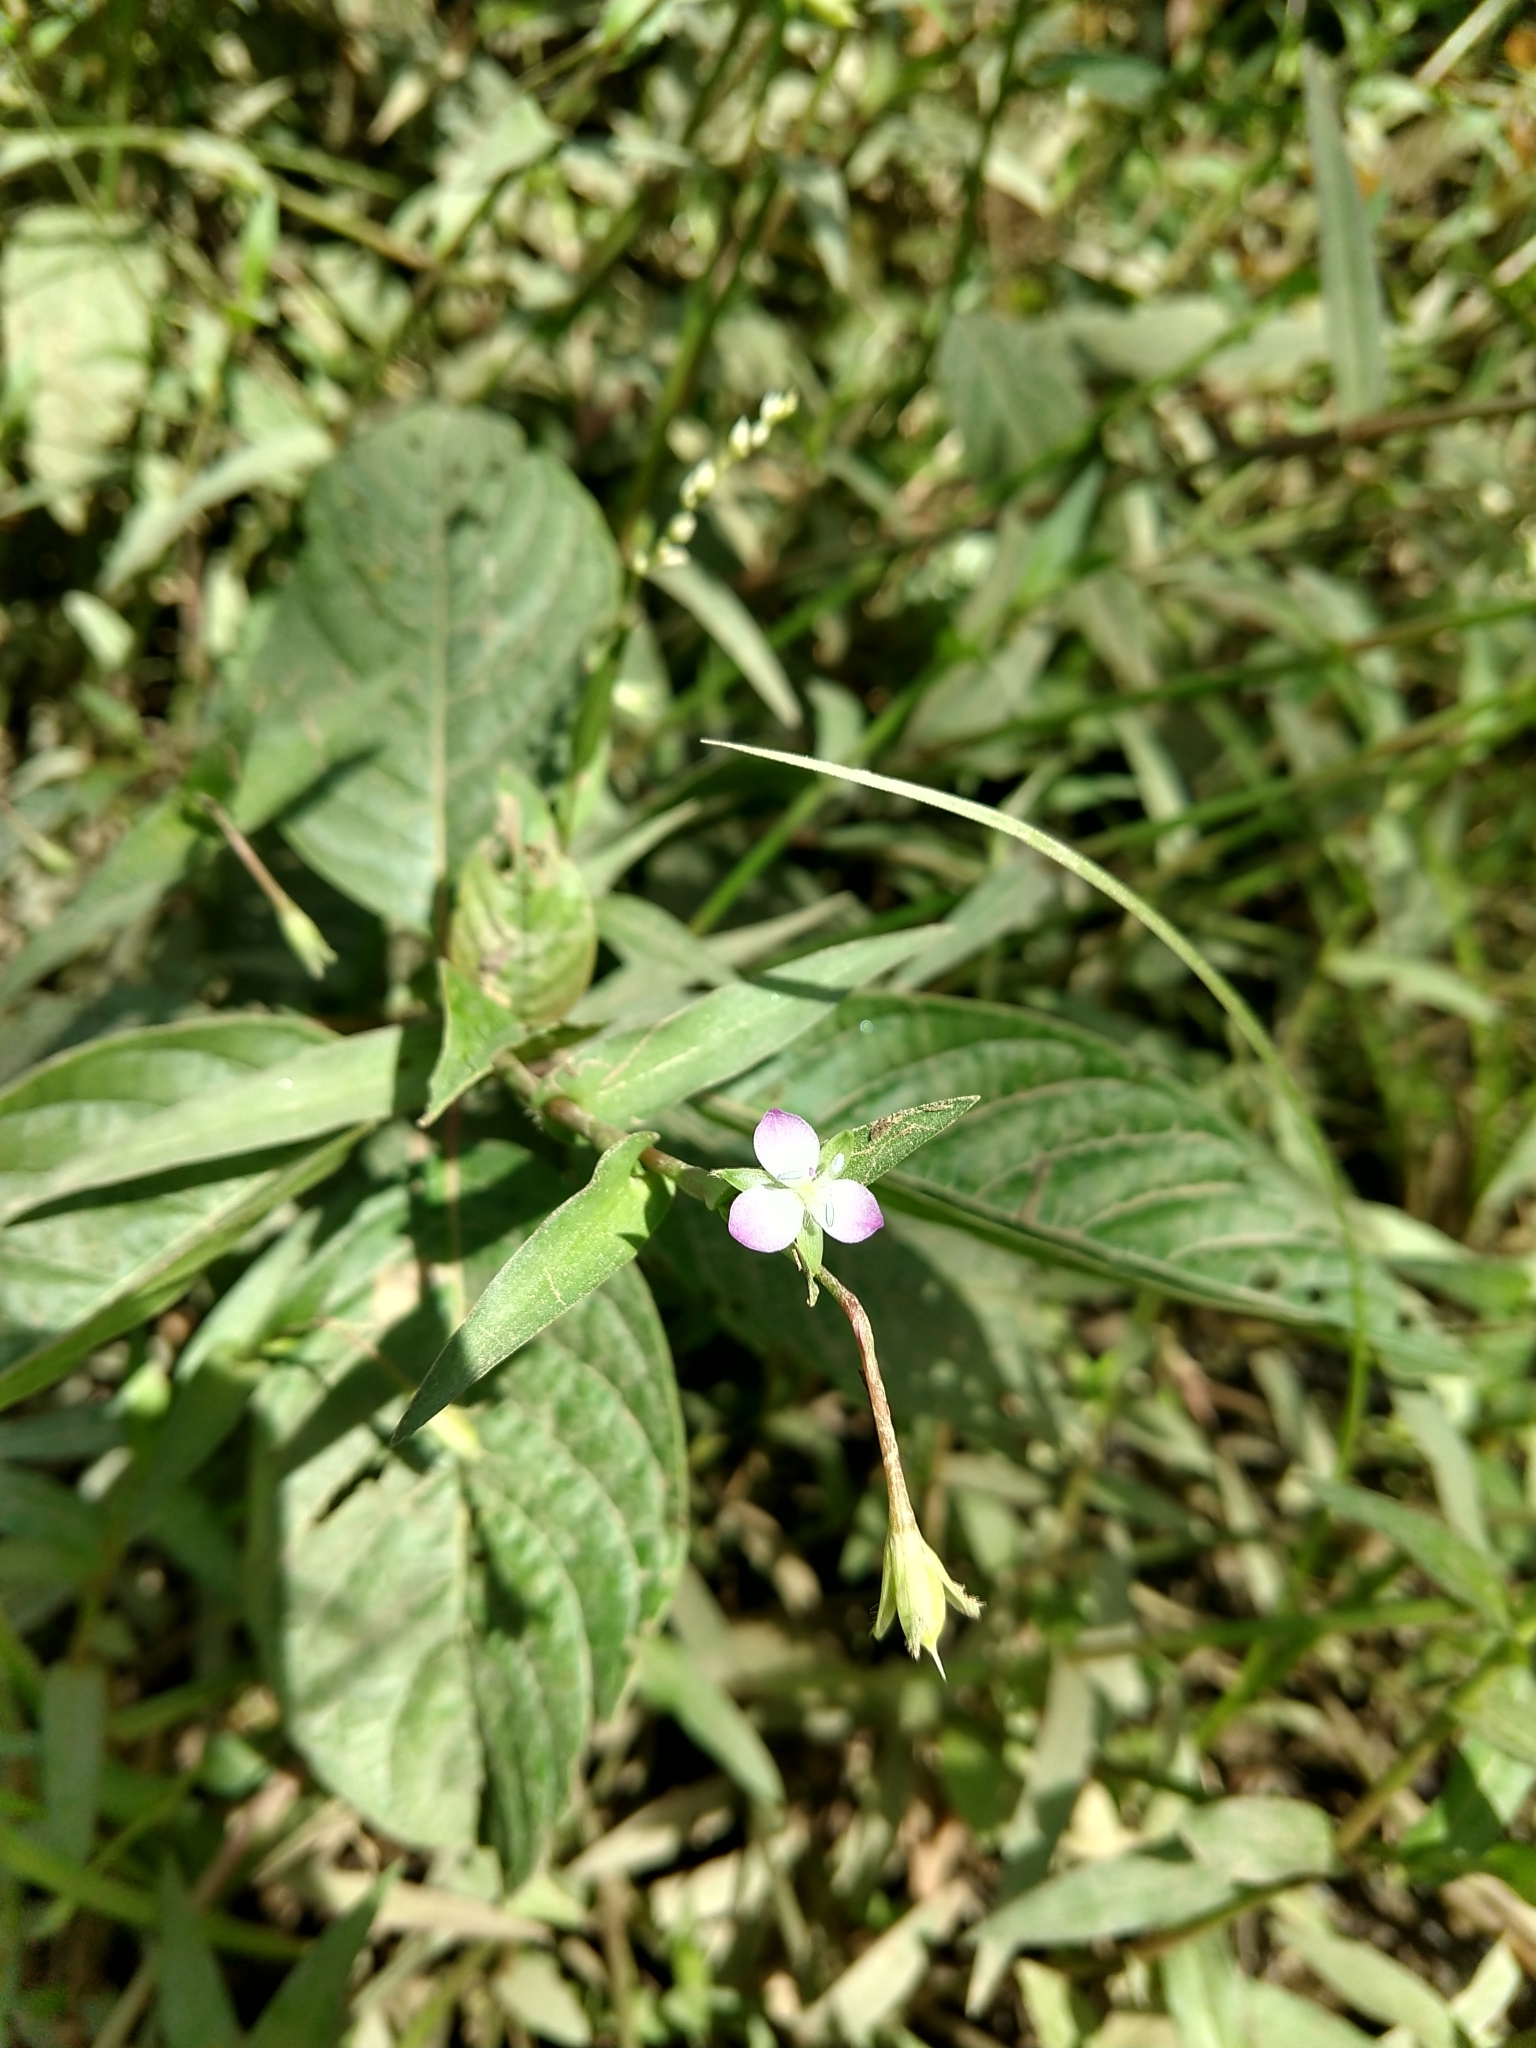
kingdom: Plantae
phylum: Tracheophyta
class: Liliopsida
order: Commelinales
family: Commelinaceae
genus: Murdannia
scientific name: Murdannia keisak
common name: Wartremoving herb
